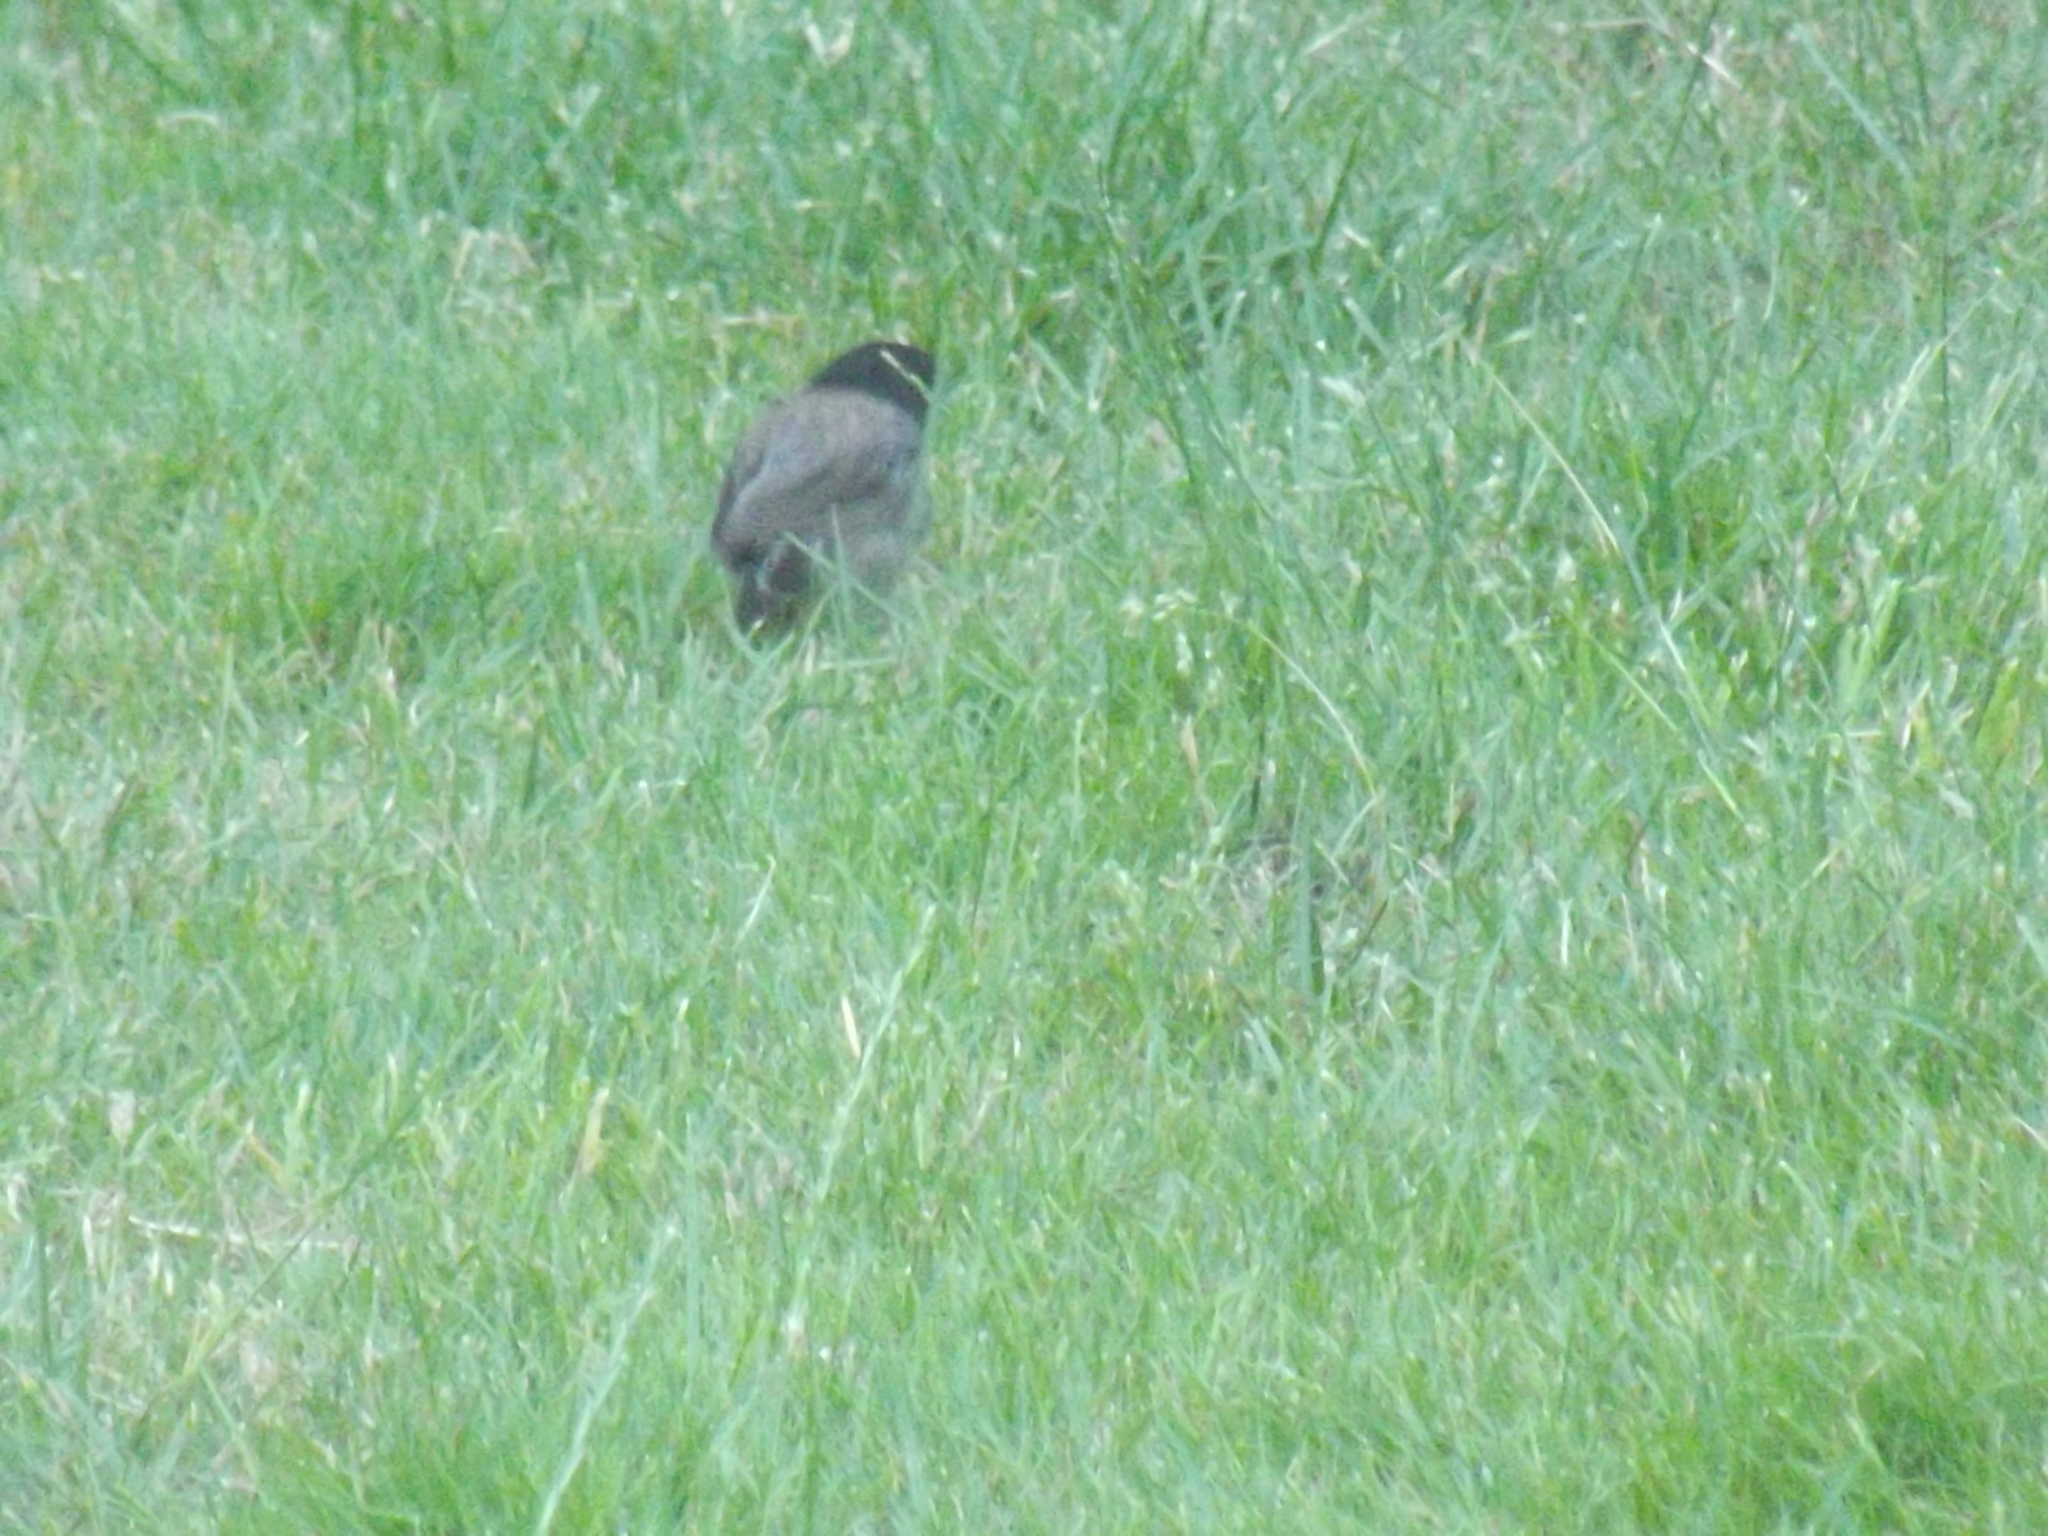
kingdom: Animalia
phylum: Chordata
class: Aves
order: Passeriformes
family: Passerellidae
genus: Junco
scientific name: Junco hyemalis
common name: Dark-eyed junco
